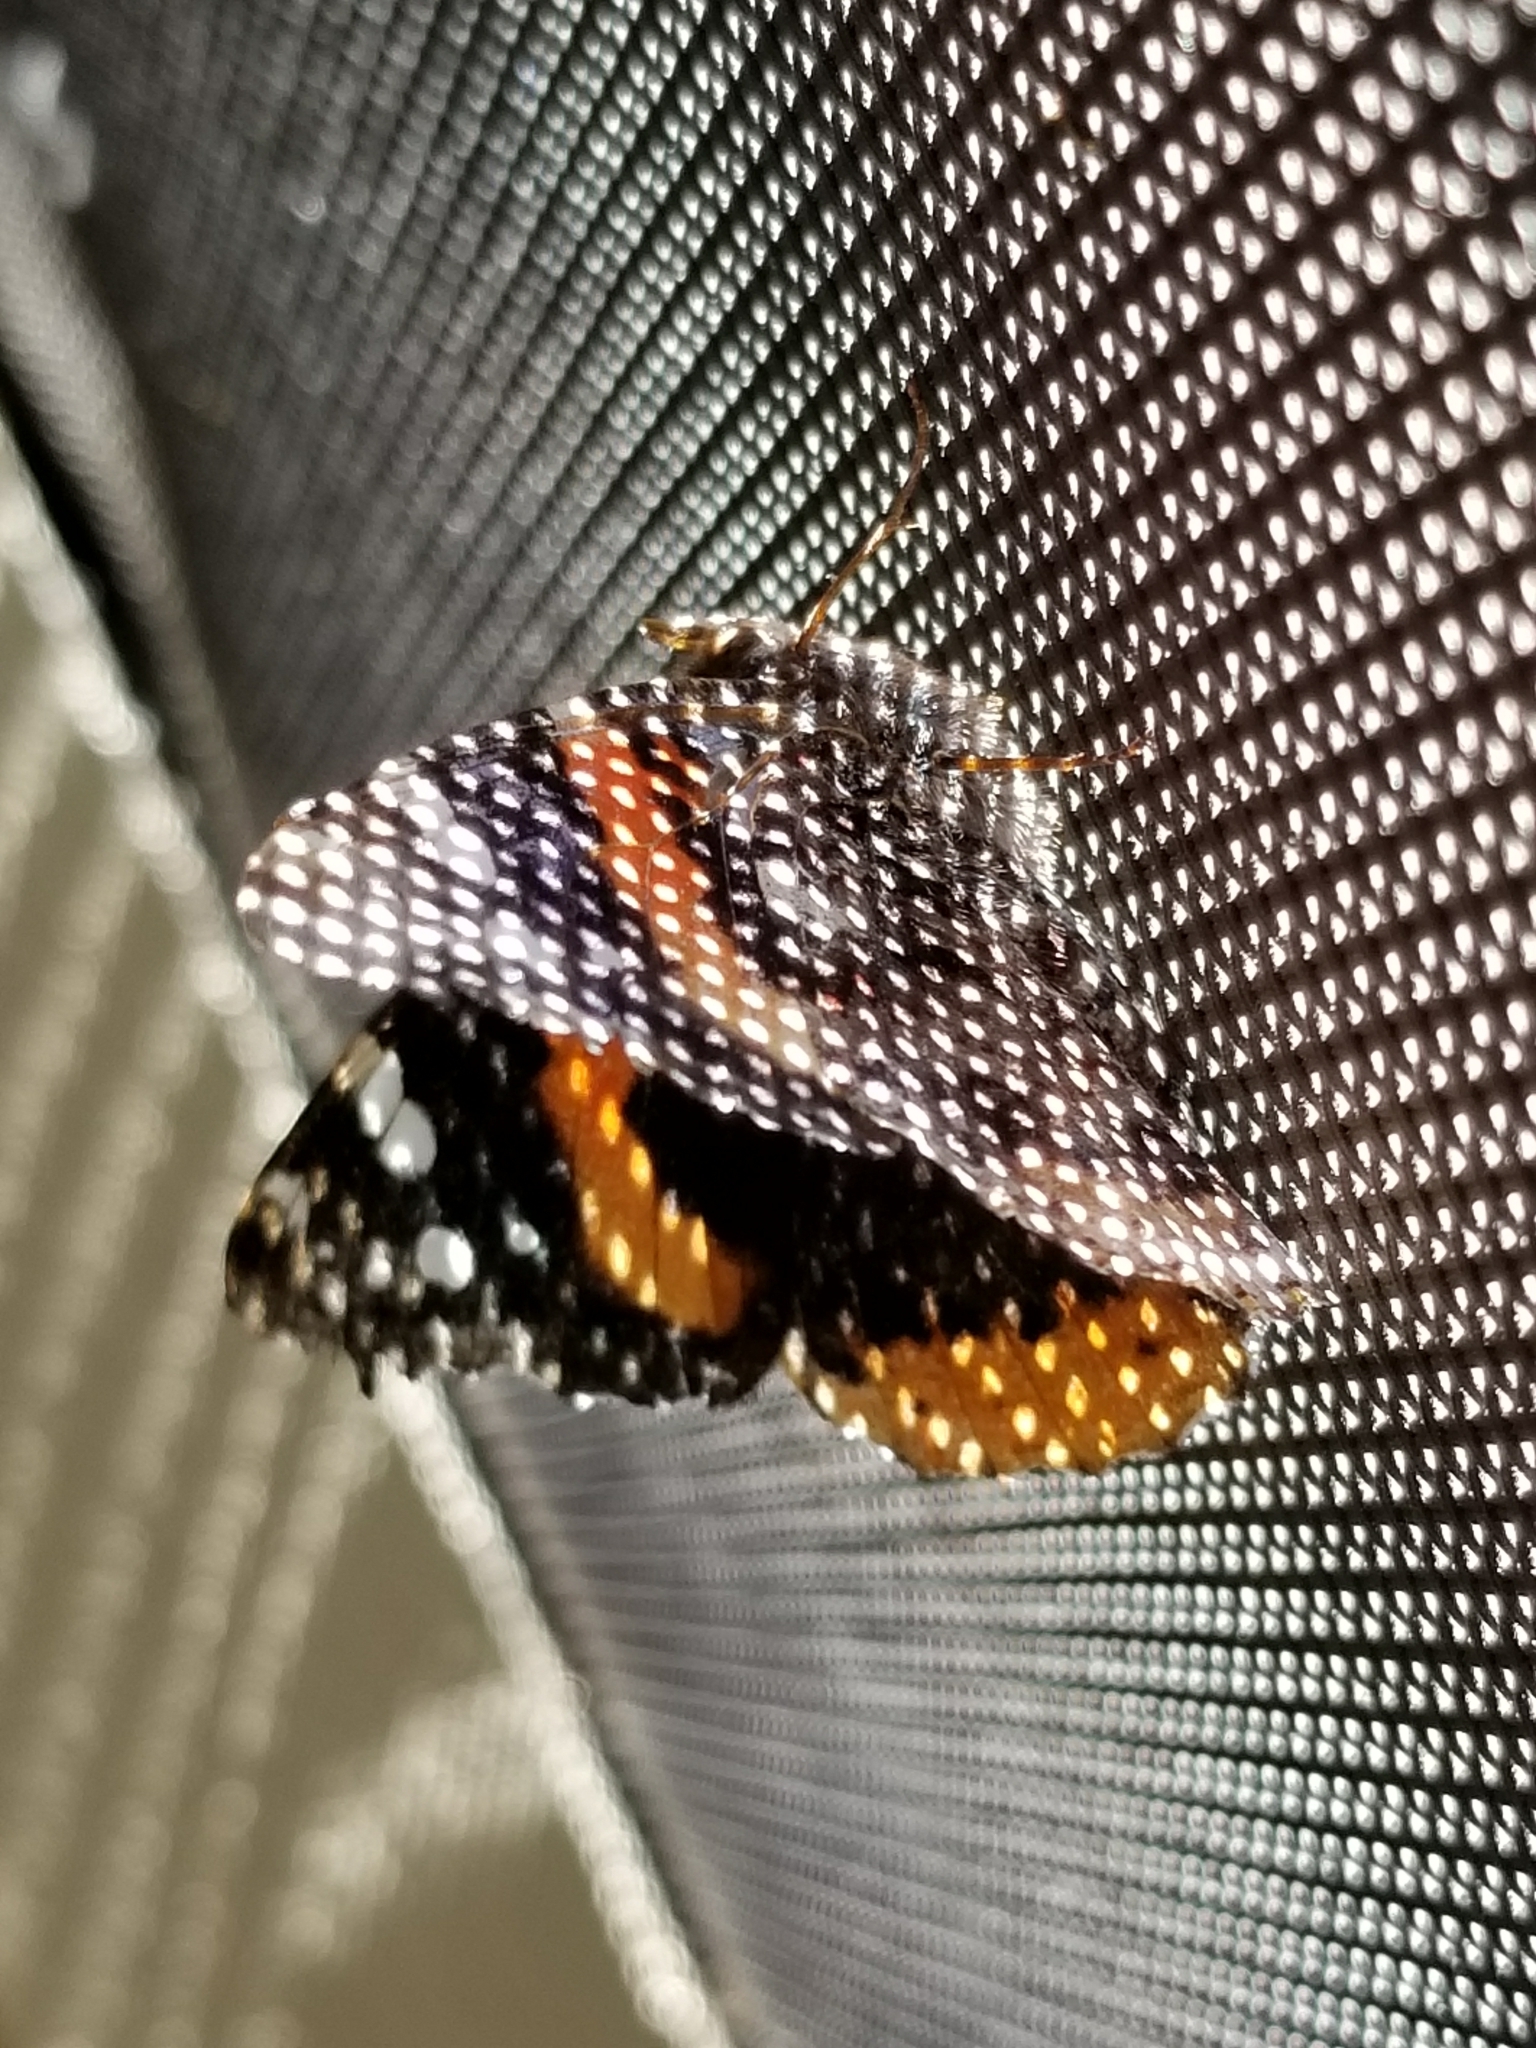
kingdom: Animalia
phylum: Arthropoda
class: Insecta
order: Lepidoptera
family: Nymphalidae
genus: Vanessa
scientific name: Vanessa atalanta
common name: Red admiral
